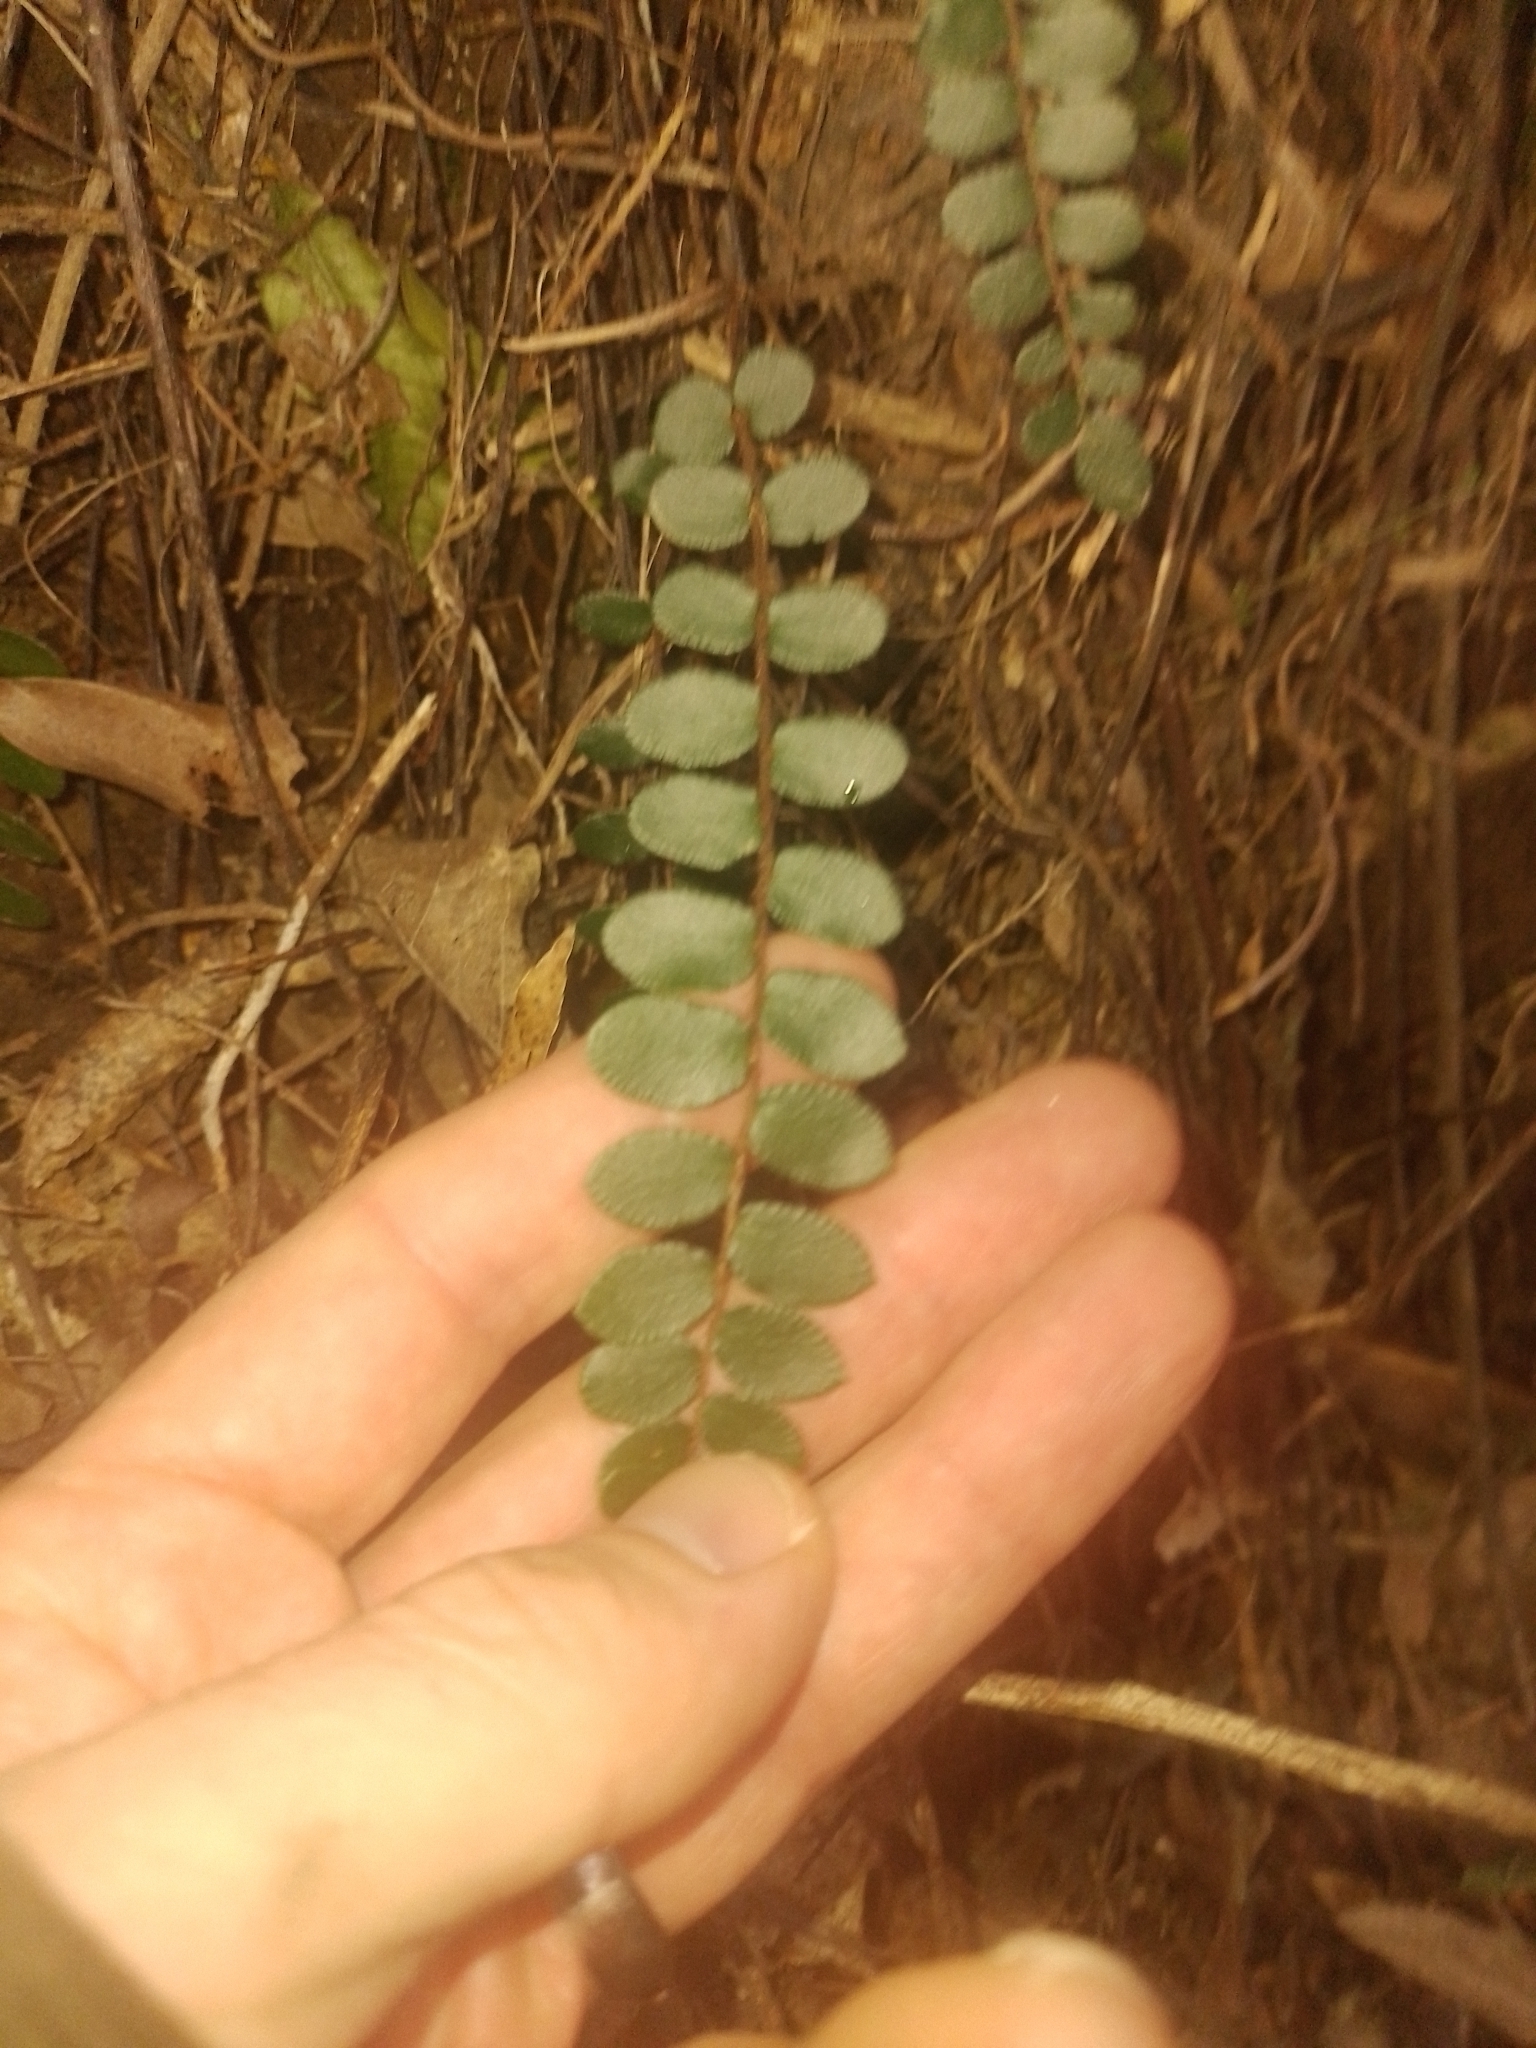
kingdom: Plantae
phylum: Tracheophyta
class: Polypodiopsida
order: Polypodiales
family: Pteridaceae
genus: Pellaea
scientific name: Pellaea rotundifolia
